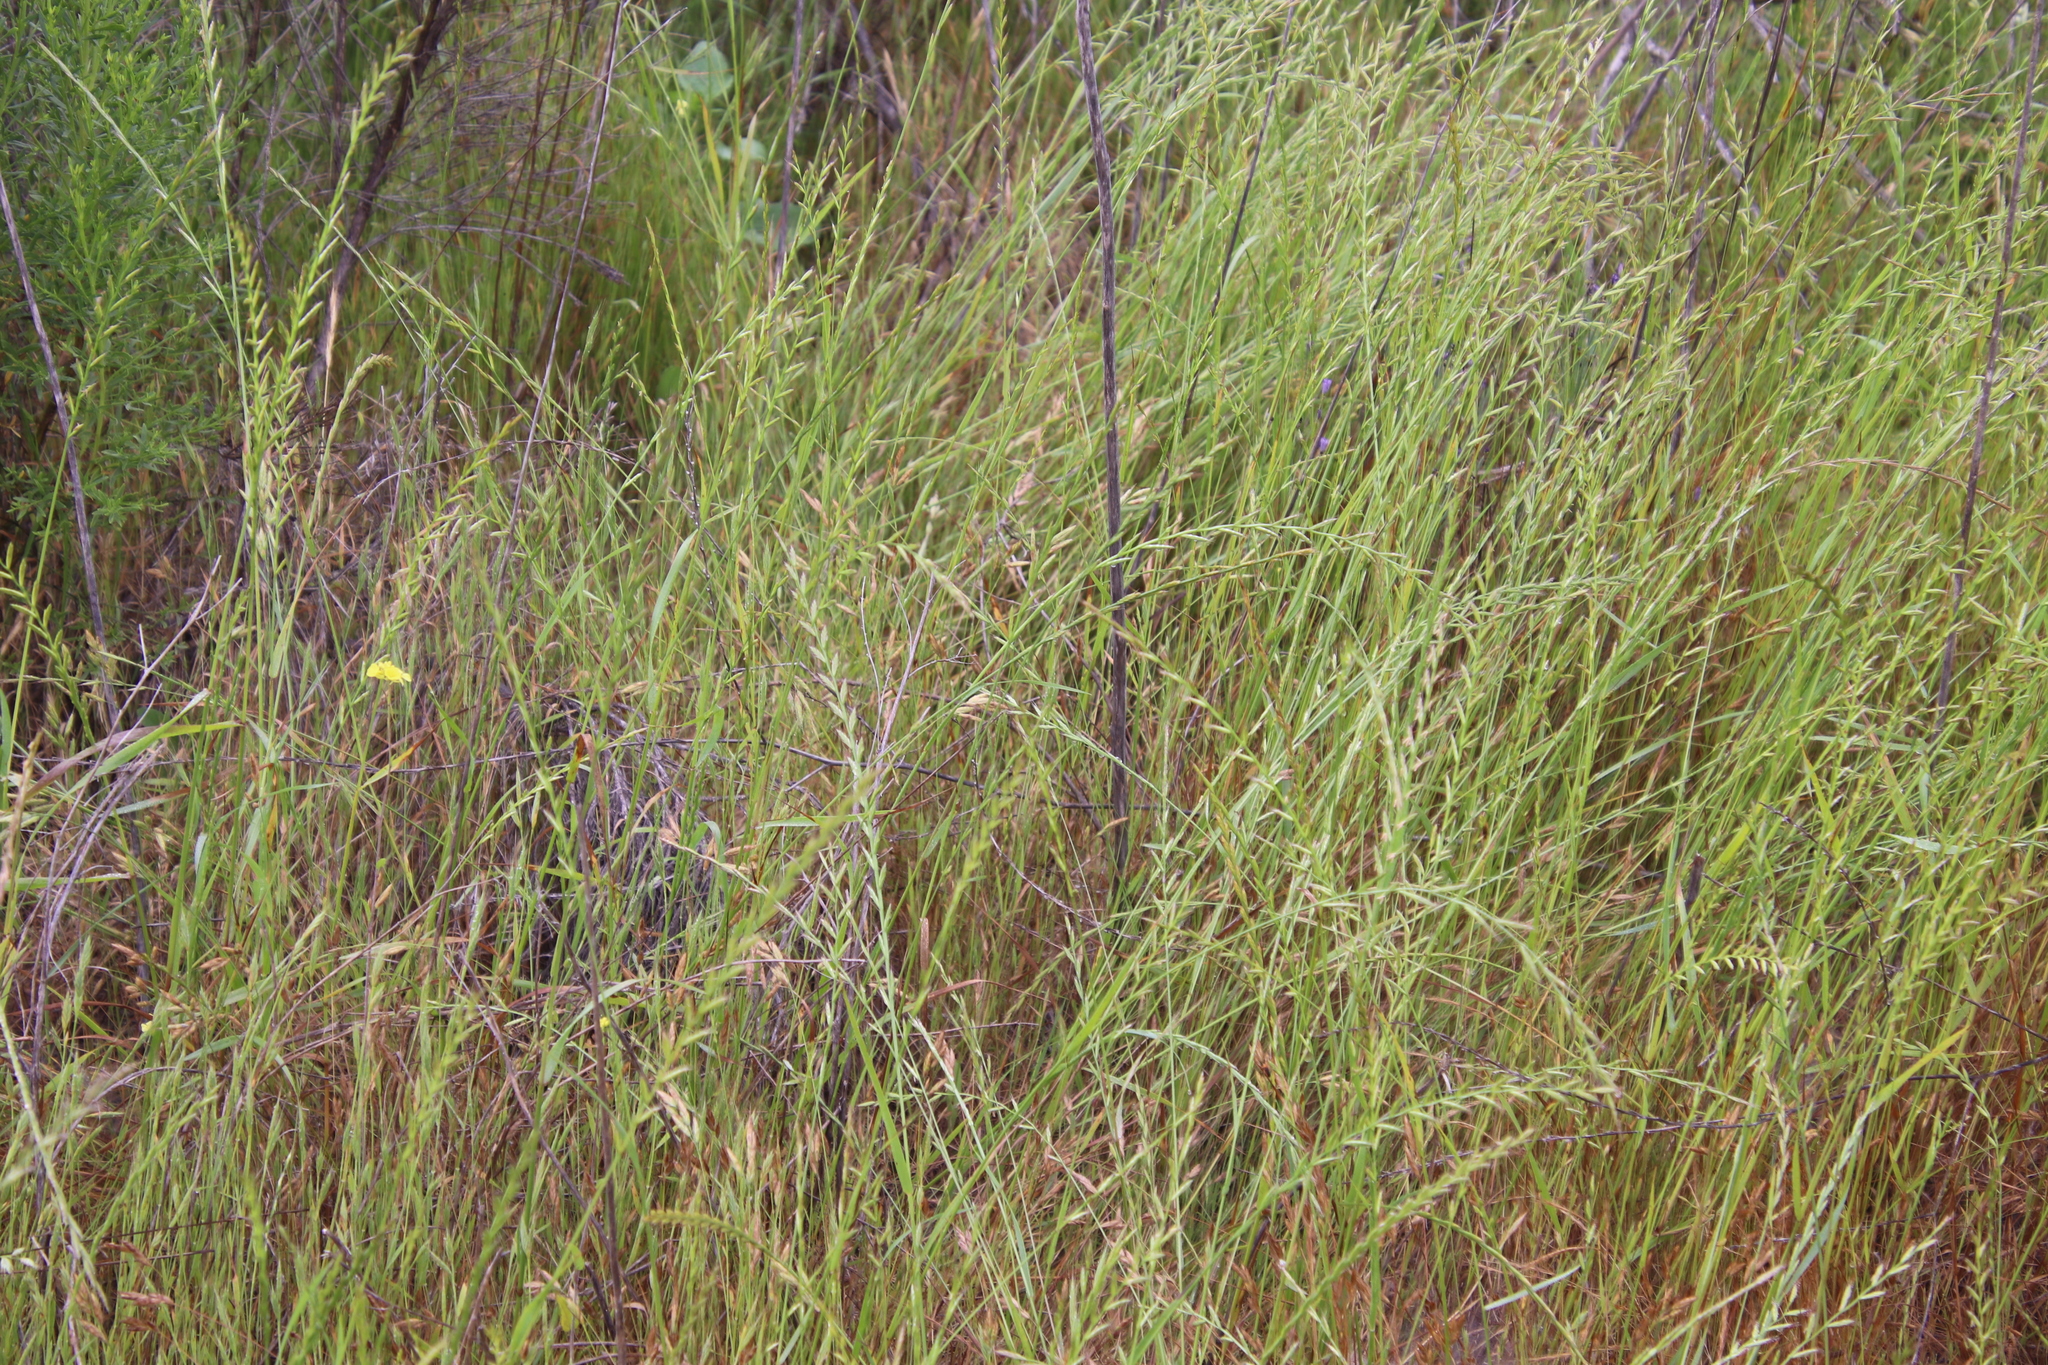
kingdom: Plantae
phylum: Tracheophyta
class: Liliopsida
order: Poales
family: Poaceae
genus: Lolium
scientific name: Lolium perenne
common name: Perennial ryegrass
